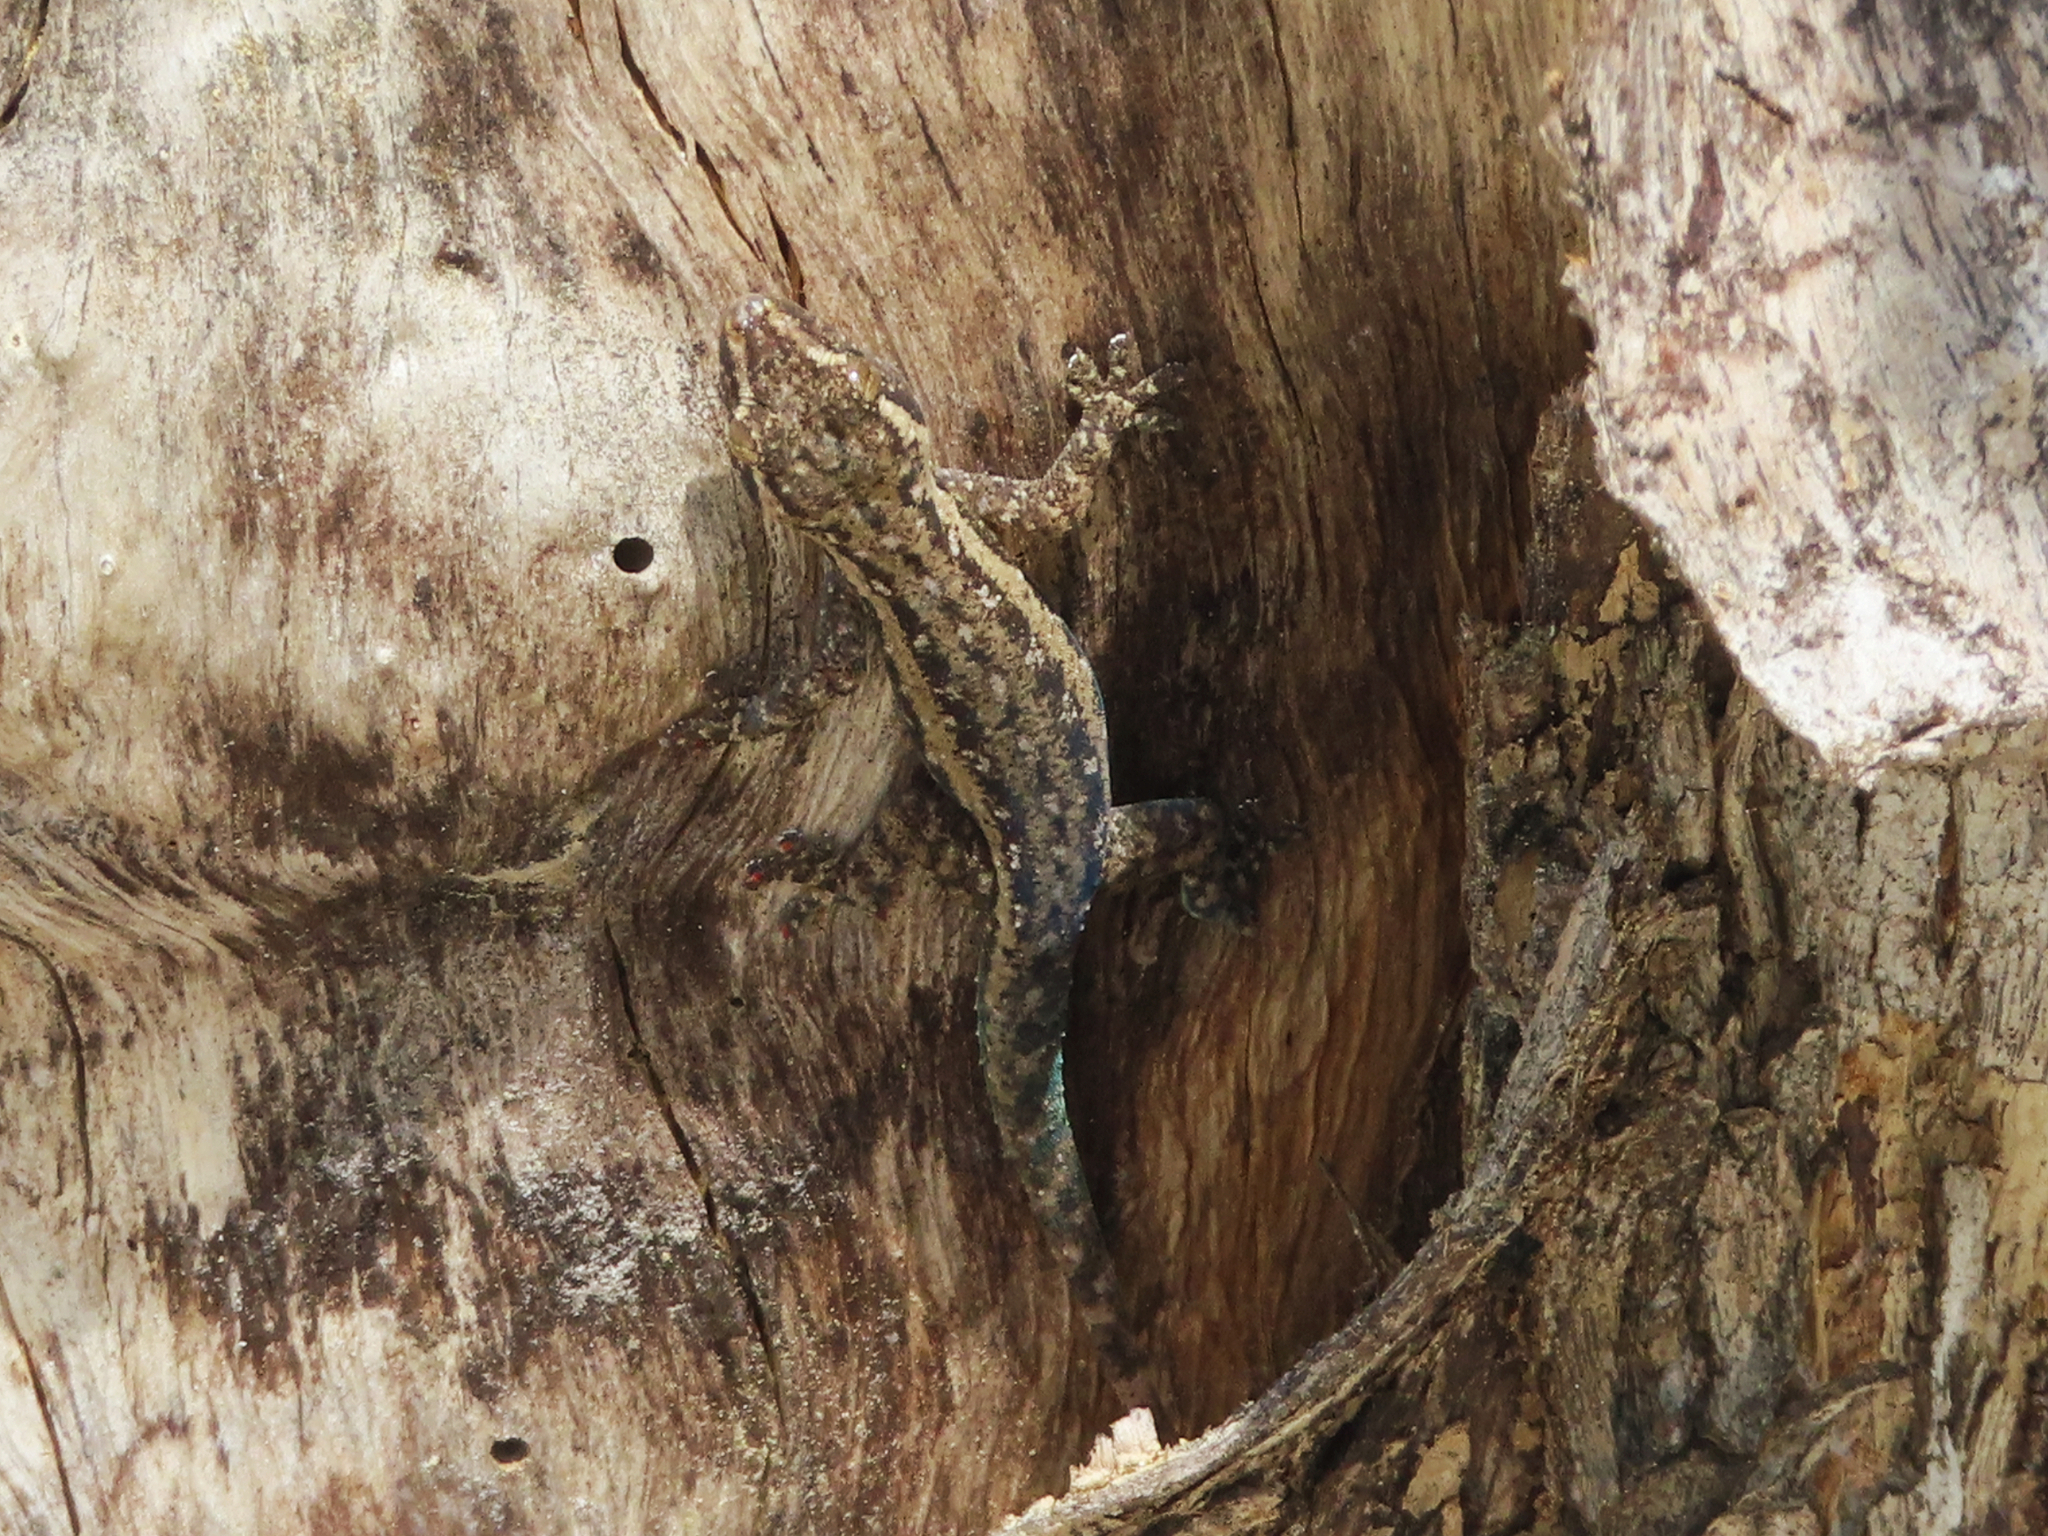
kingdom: Animalia
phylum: Chordata
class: Squamata
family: Gekkonidae
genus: Hemidactylus
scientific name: Hemidactylus frenatus
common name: Common house gecko
